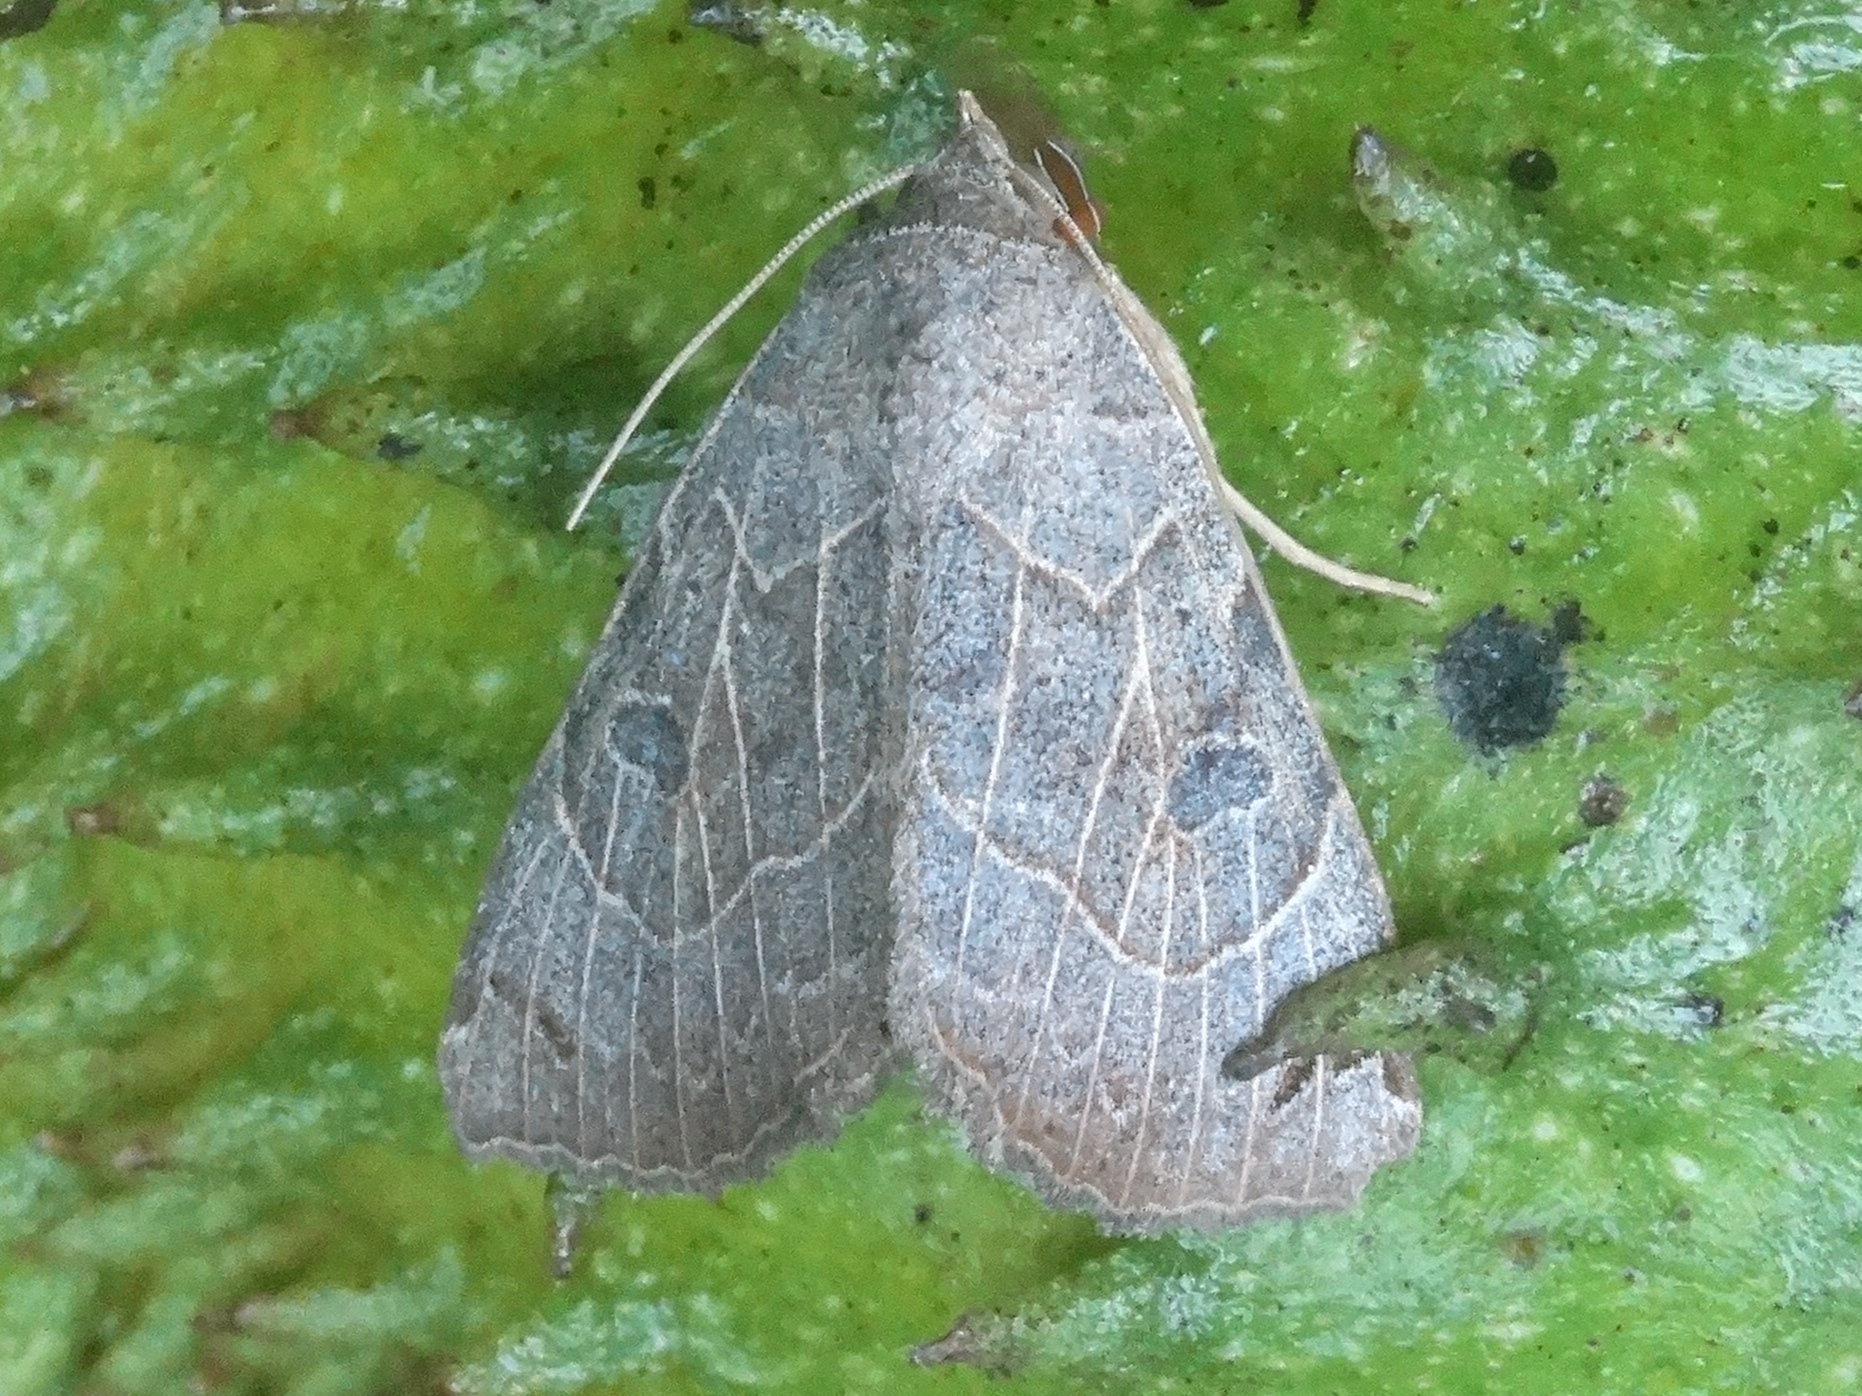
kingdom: Animalia
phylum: Arthropoda
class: Insecta
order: Lepidoptera
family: Erebidae
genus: Isogona
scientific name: Isogona
